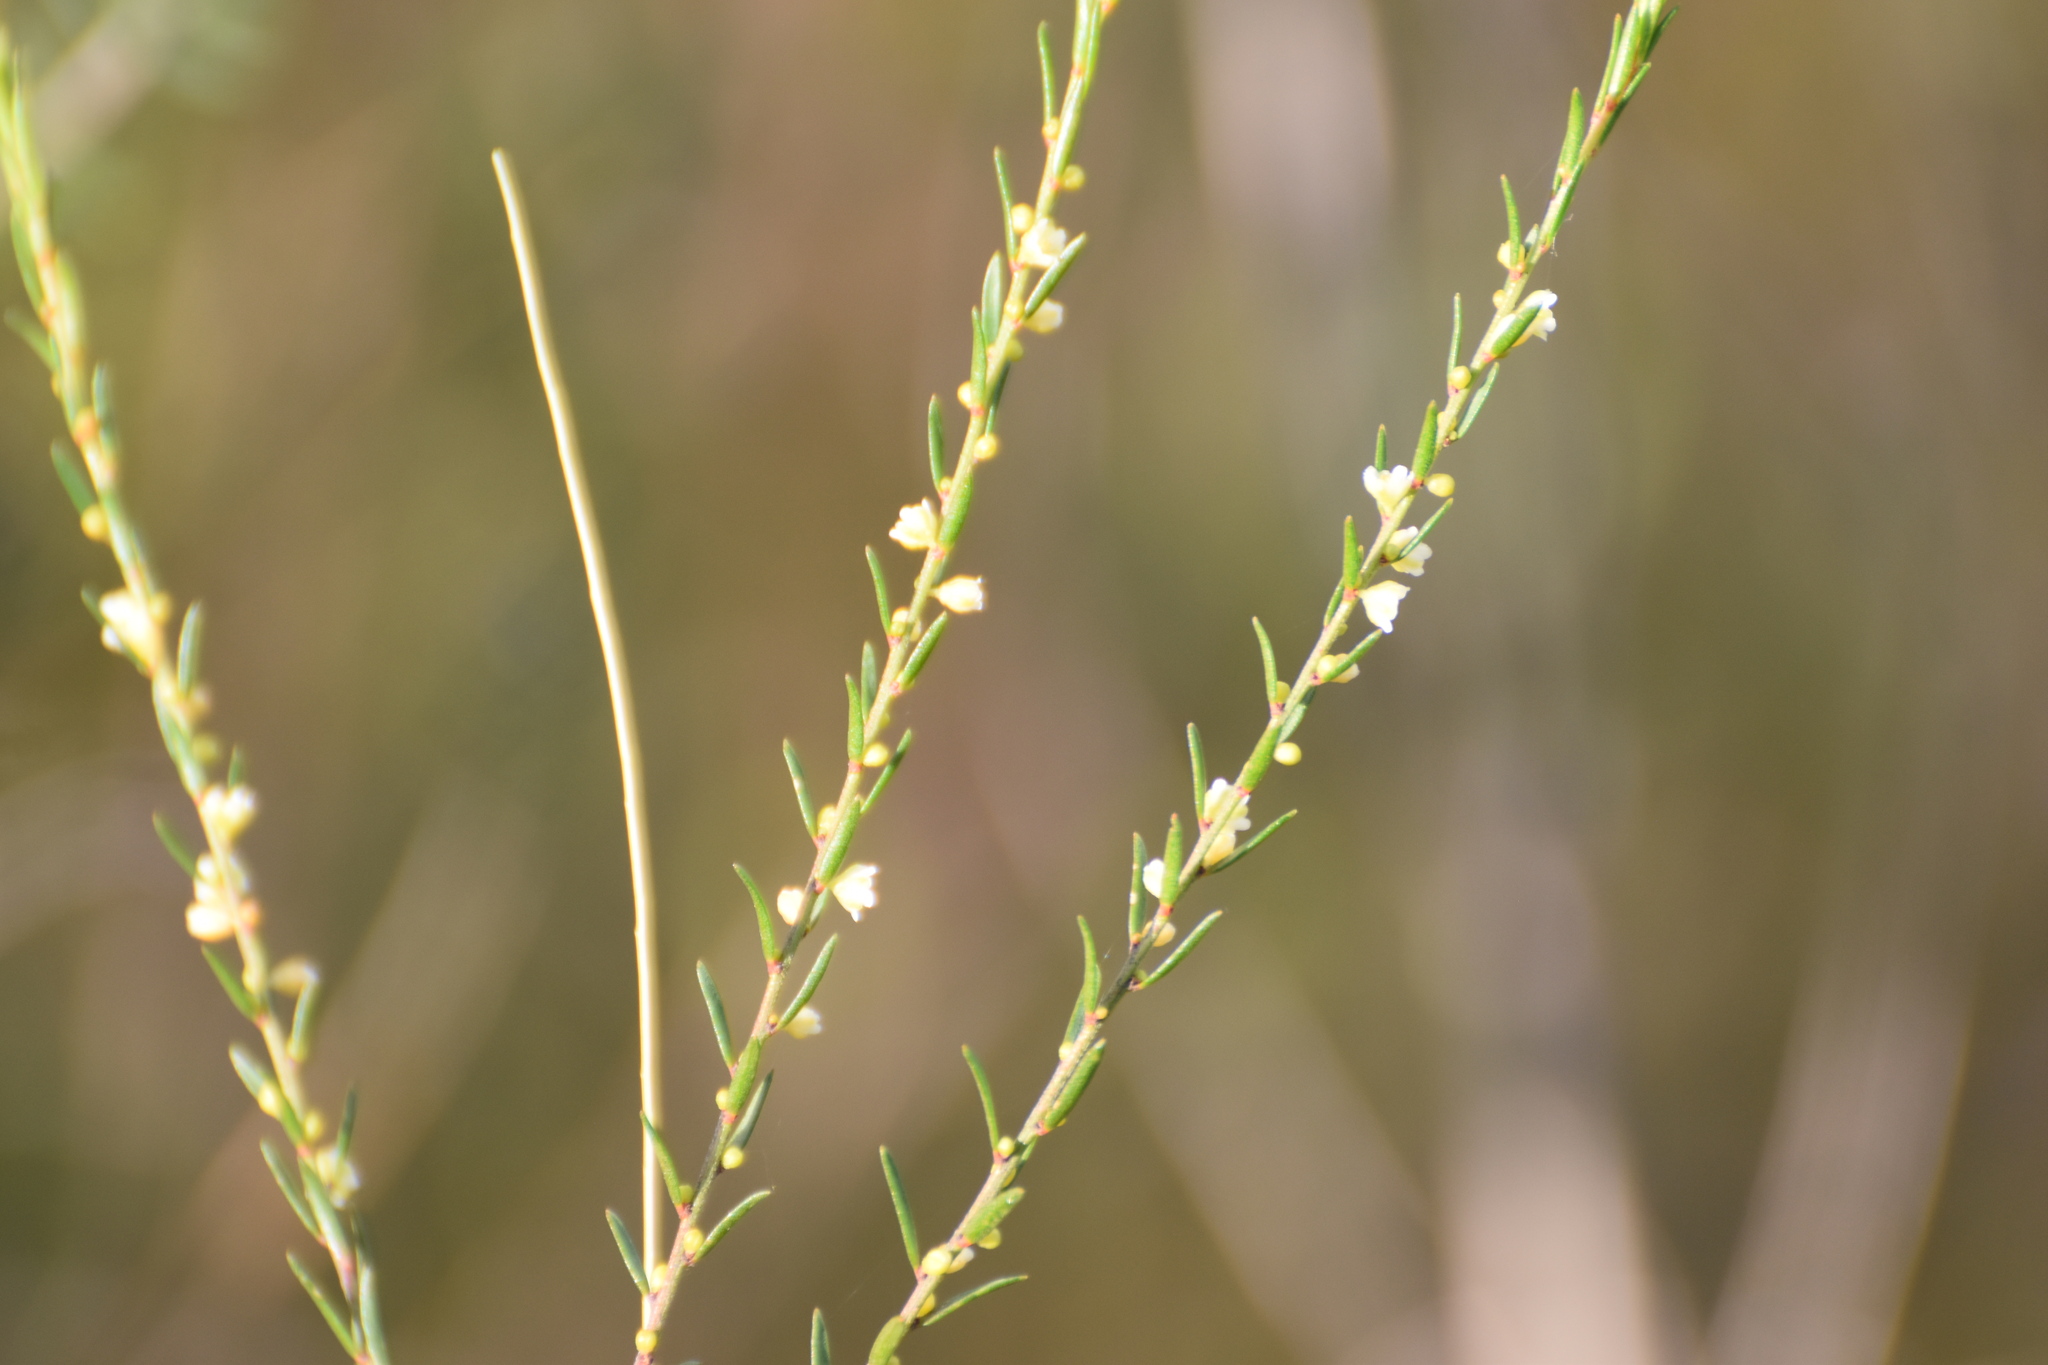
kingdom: Plantae
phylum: Tracheophyta
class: Magnoliopsida
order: Malpighiales
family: Peraceae
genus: Clutia
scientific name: Clutia ericoides
